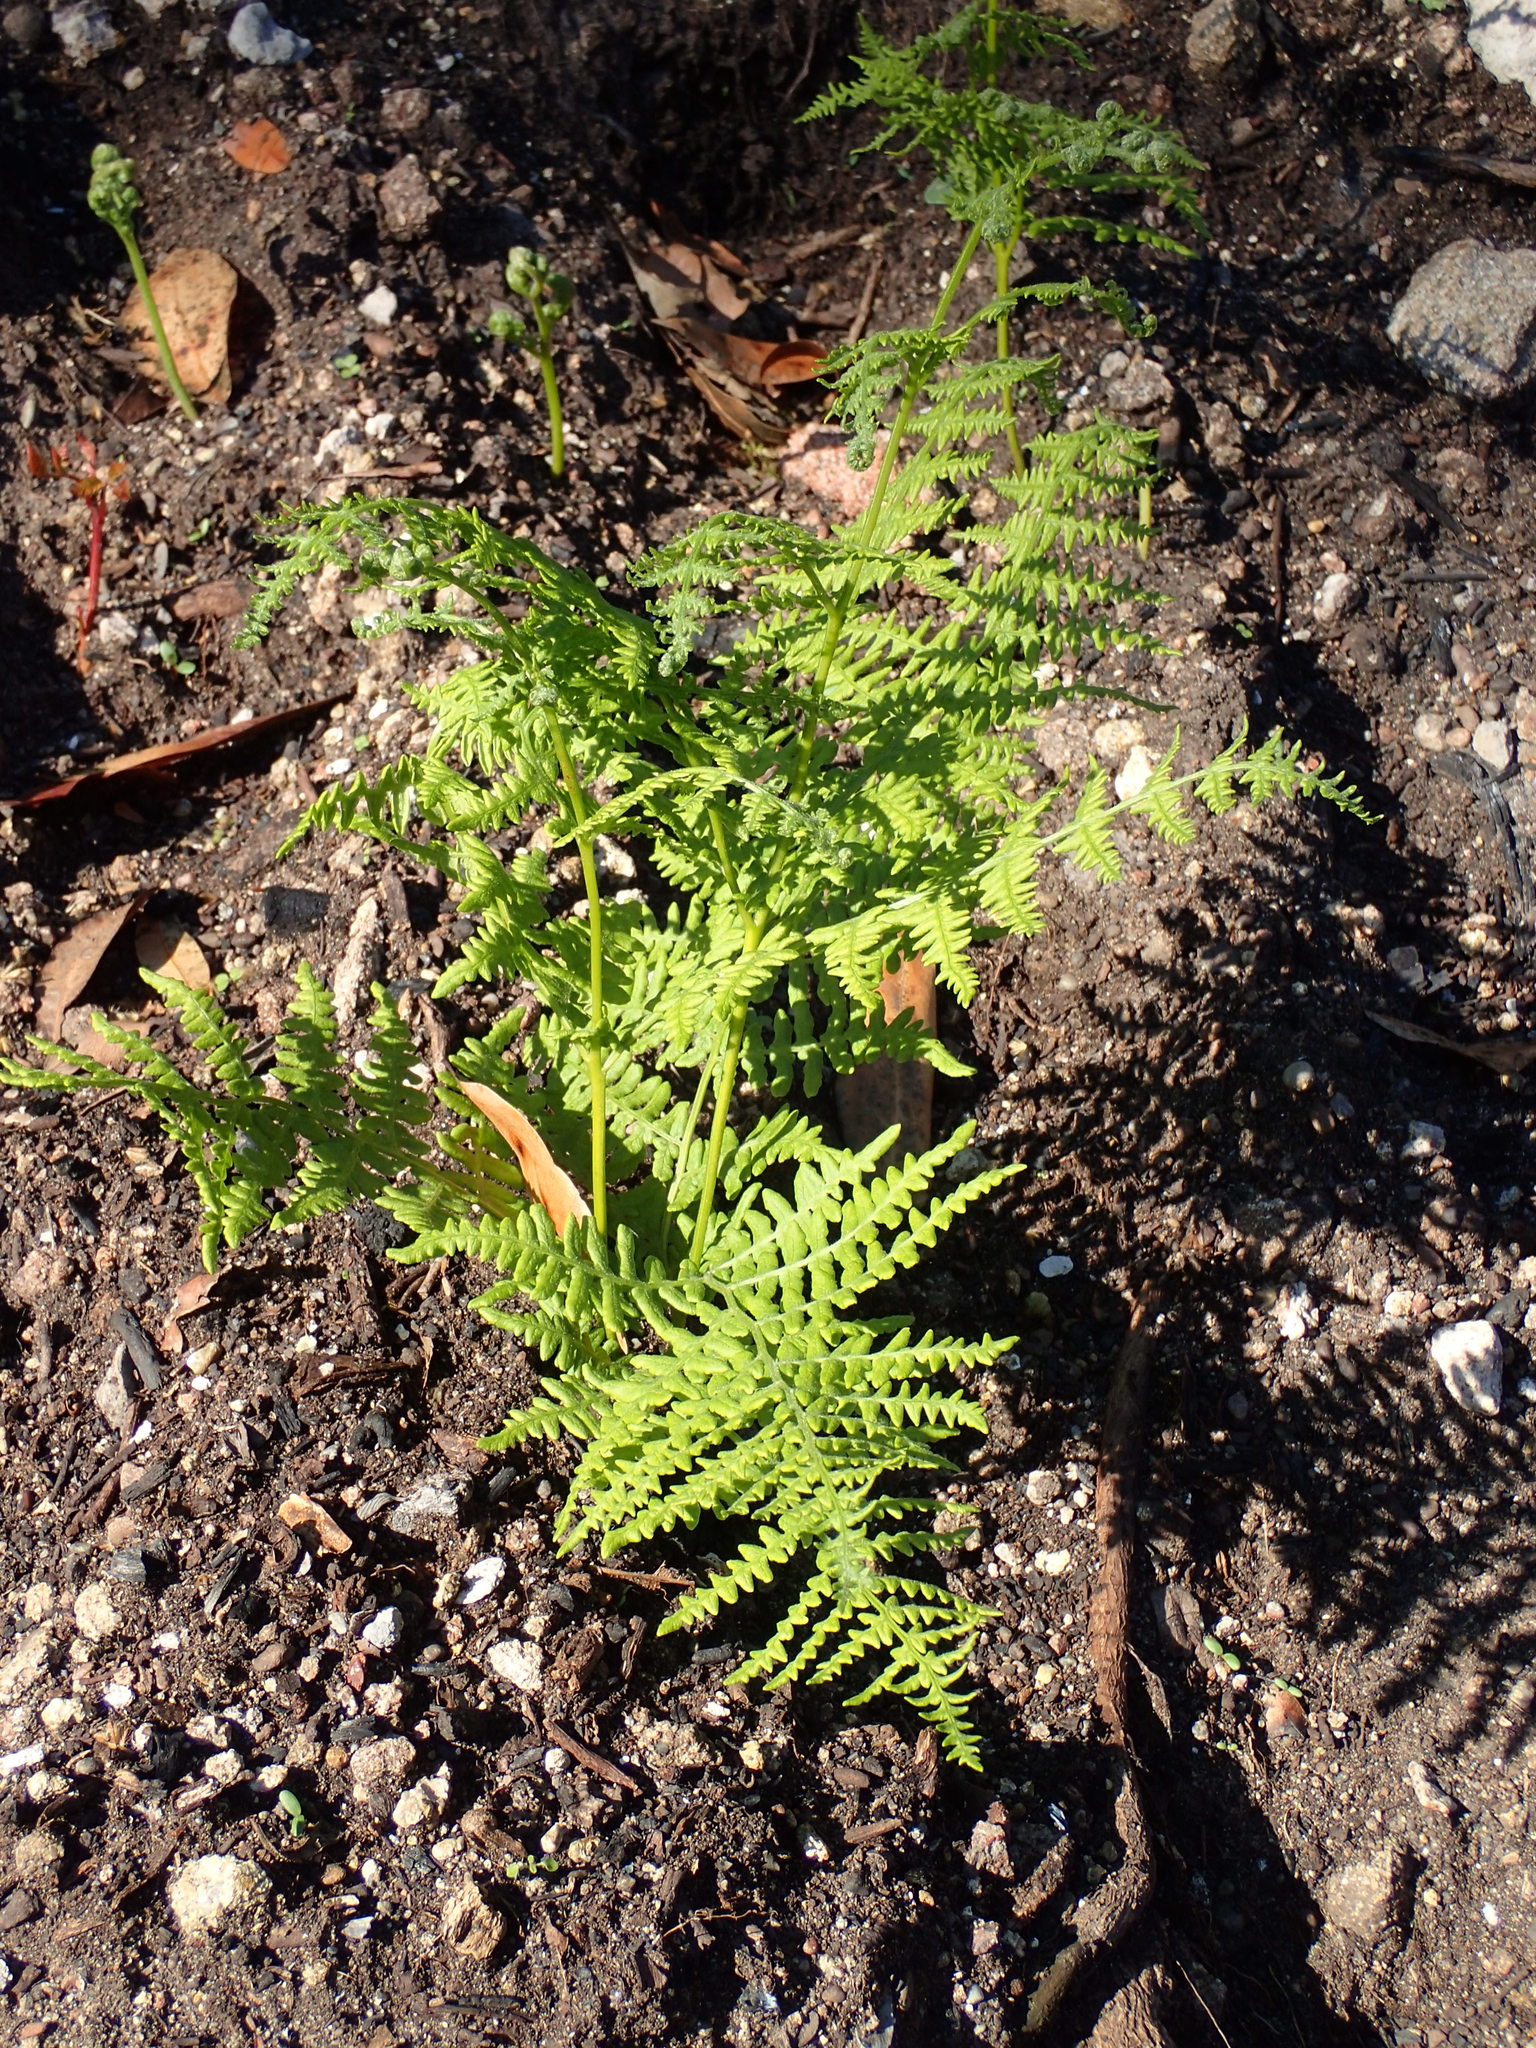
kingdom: Plantae
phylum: Tracheophyta
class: Polypodiopsida
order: Polypodiales
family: Dennstaedtiaceae
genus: Pteridium
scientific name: Pteridium aquilinum
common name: Bracken
